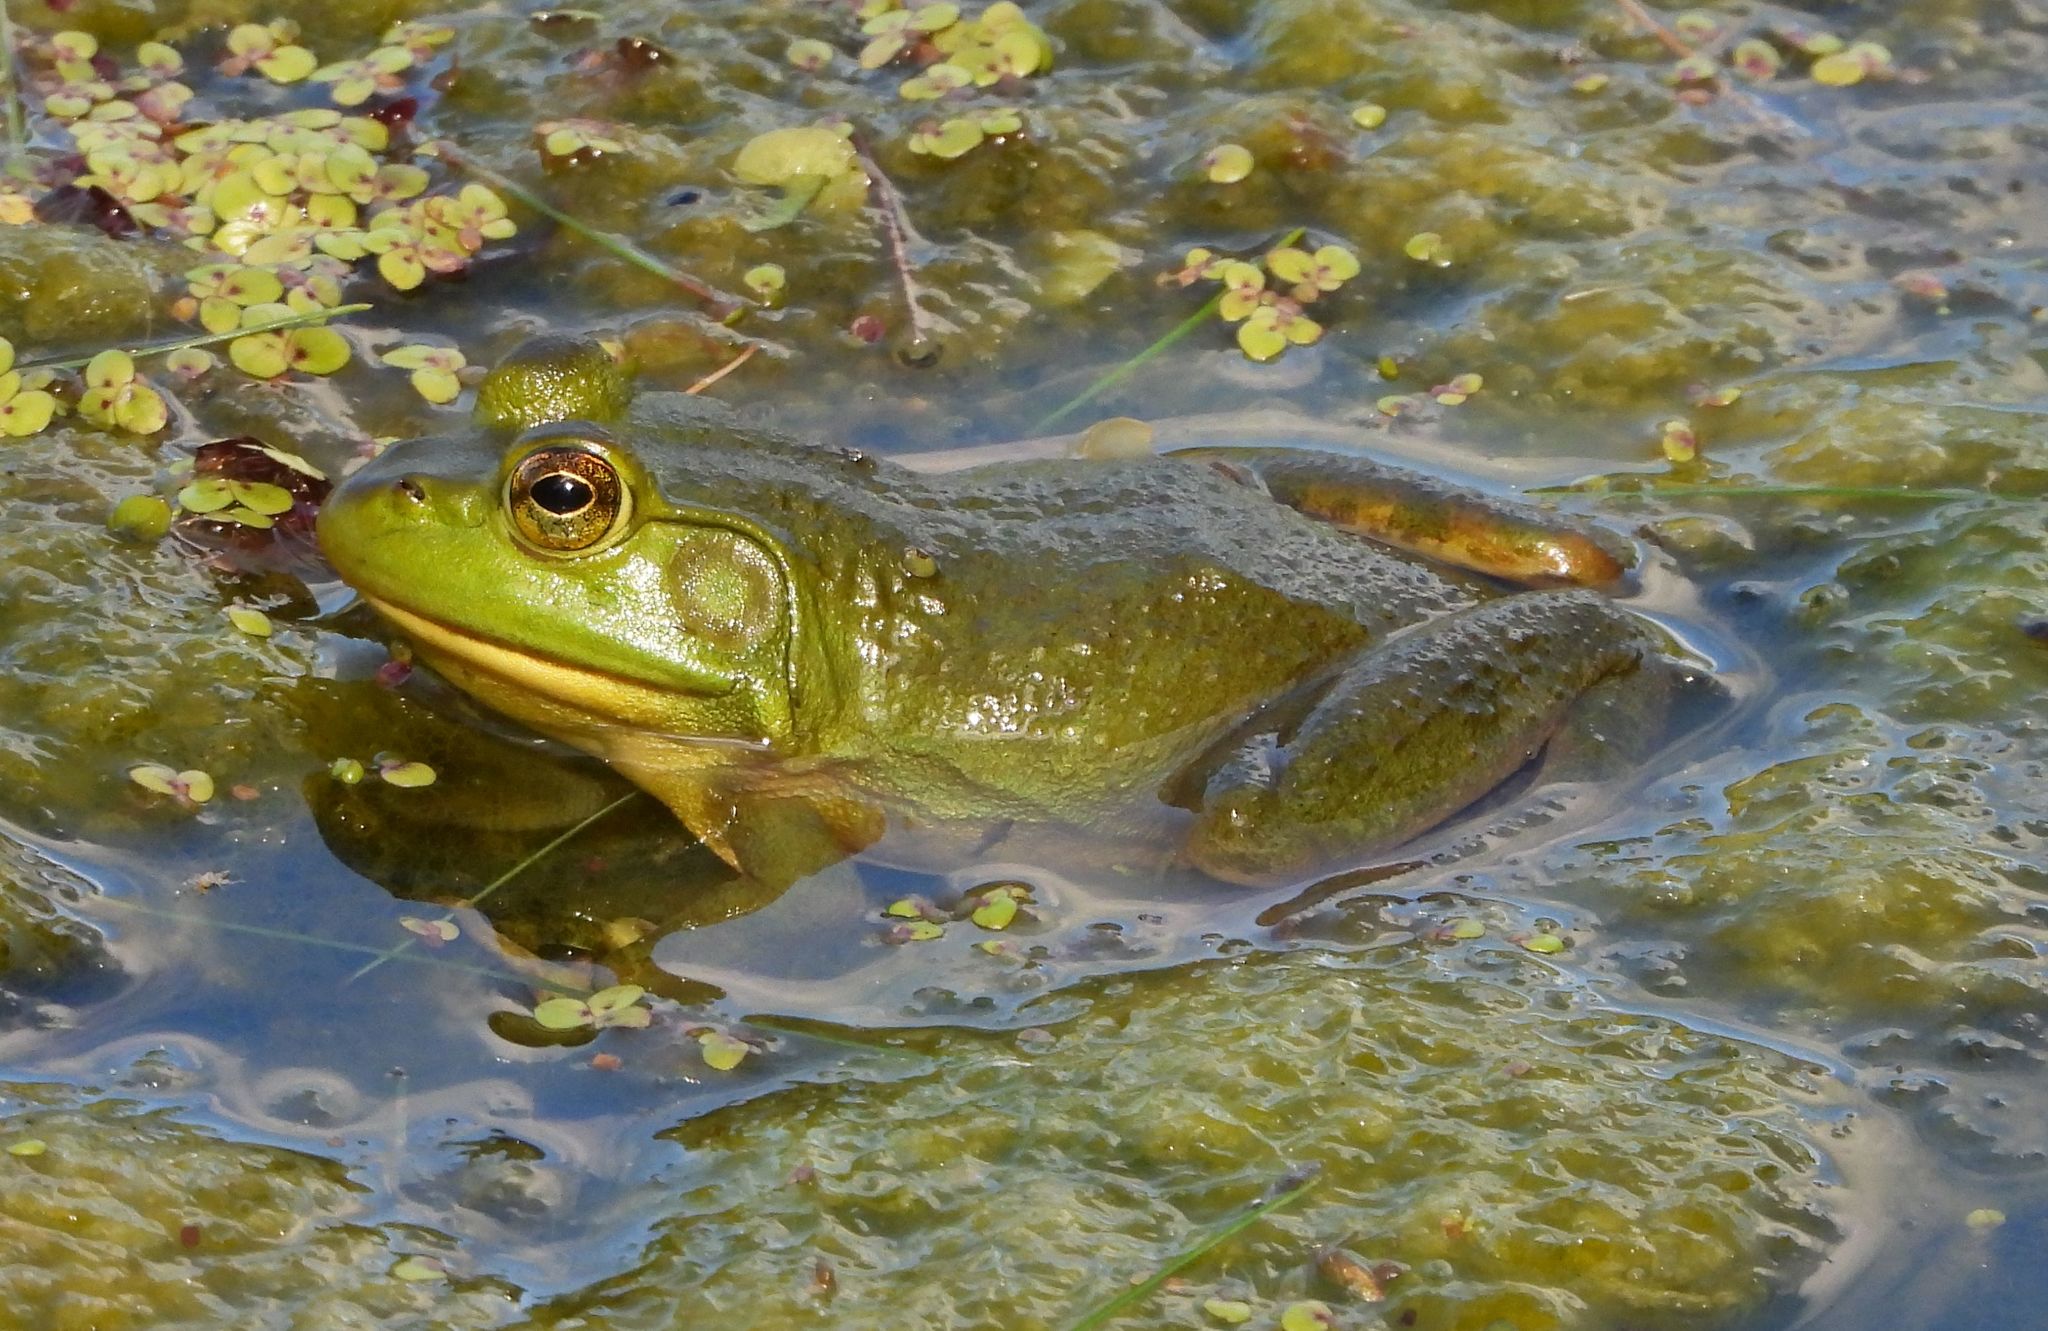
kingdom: Animalia
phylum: Chordata
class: Amphibia
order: Anura
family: Ranidae
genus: Lithobates
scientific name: Lithobates catesbeianus
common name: American bullfrog
